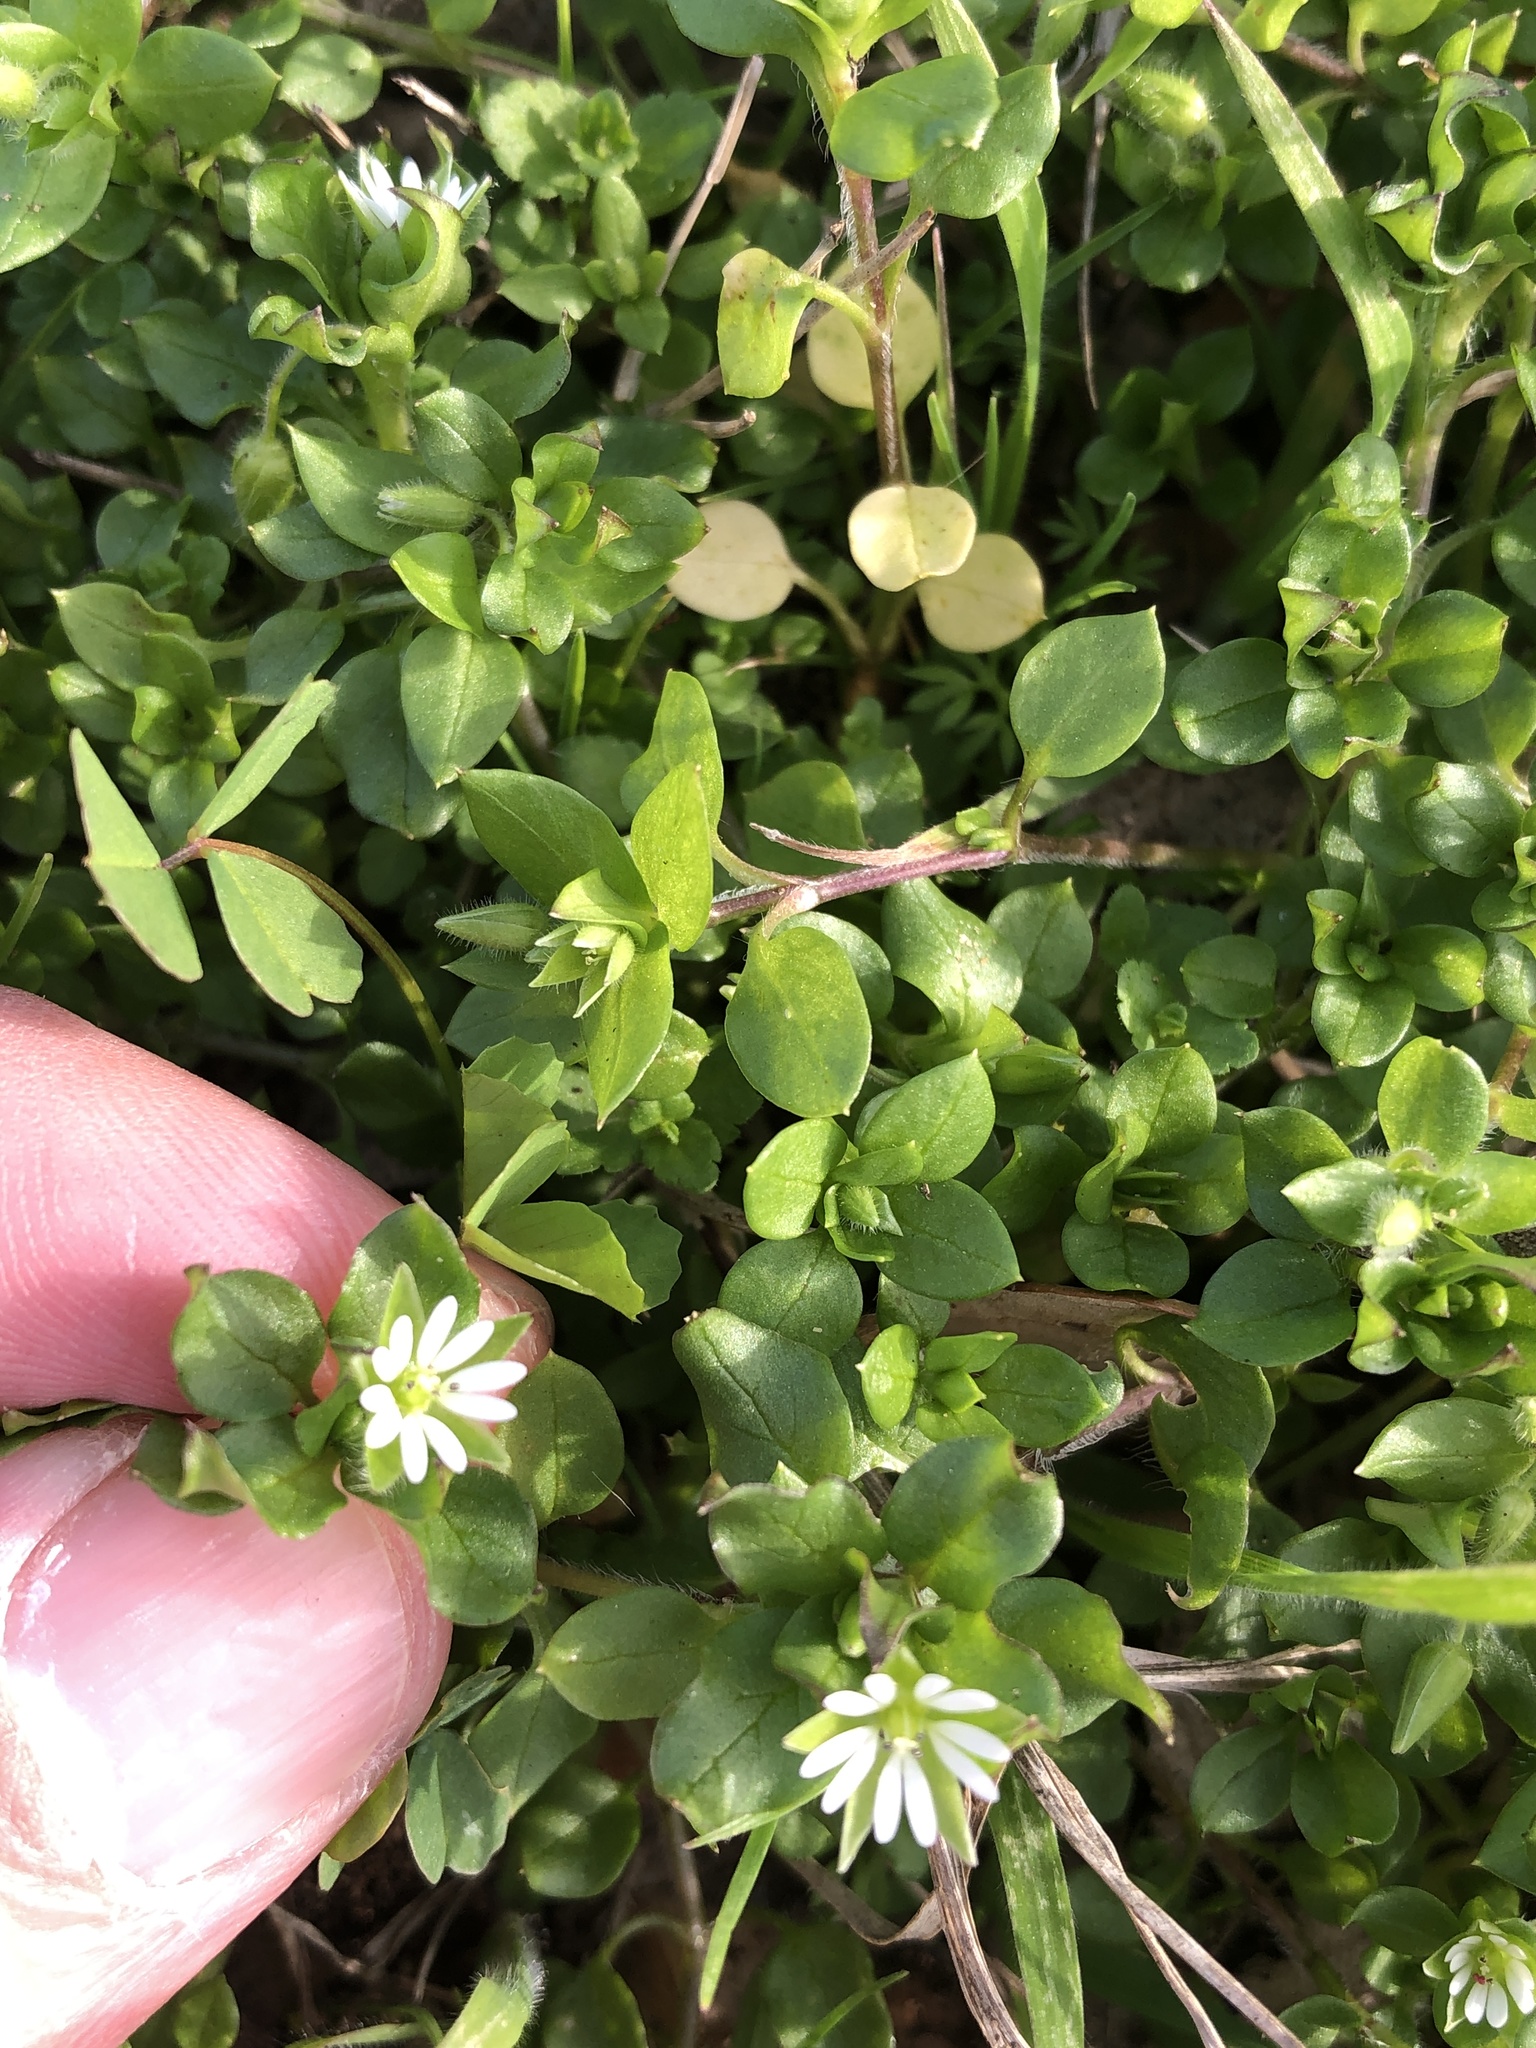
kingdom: Plantae
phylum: Tracheophyta
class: Magnoliopsida
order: Caryophyllales
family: Caryophyllaceae
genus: Stellaria
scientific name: Stellaria media
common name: Common chickweed
